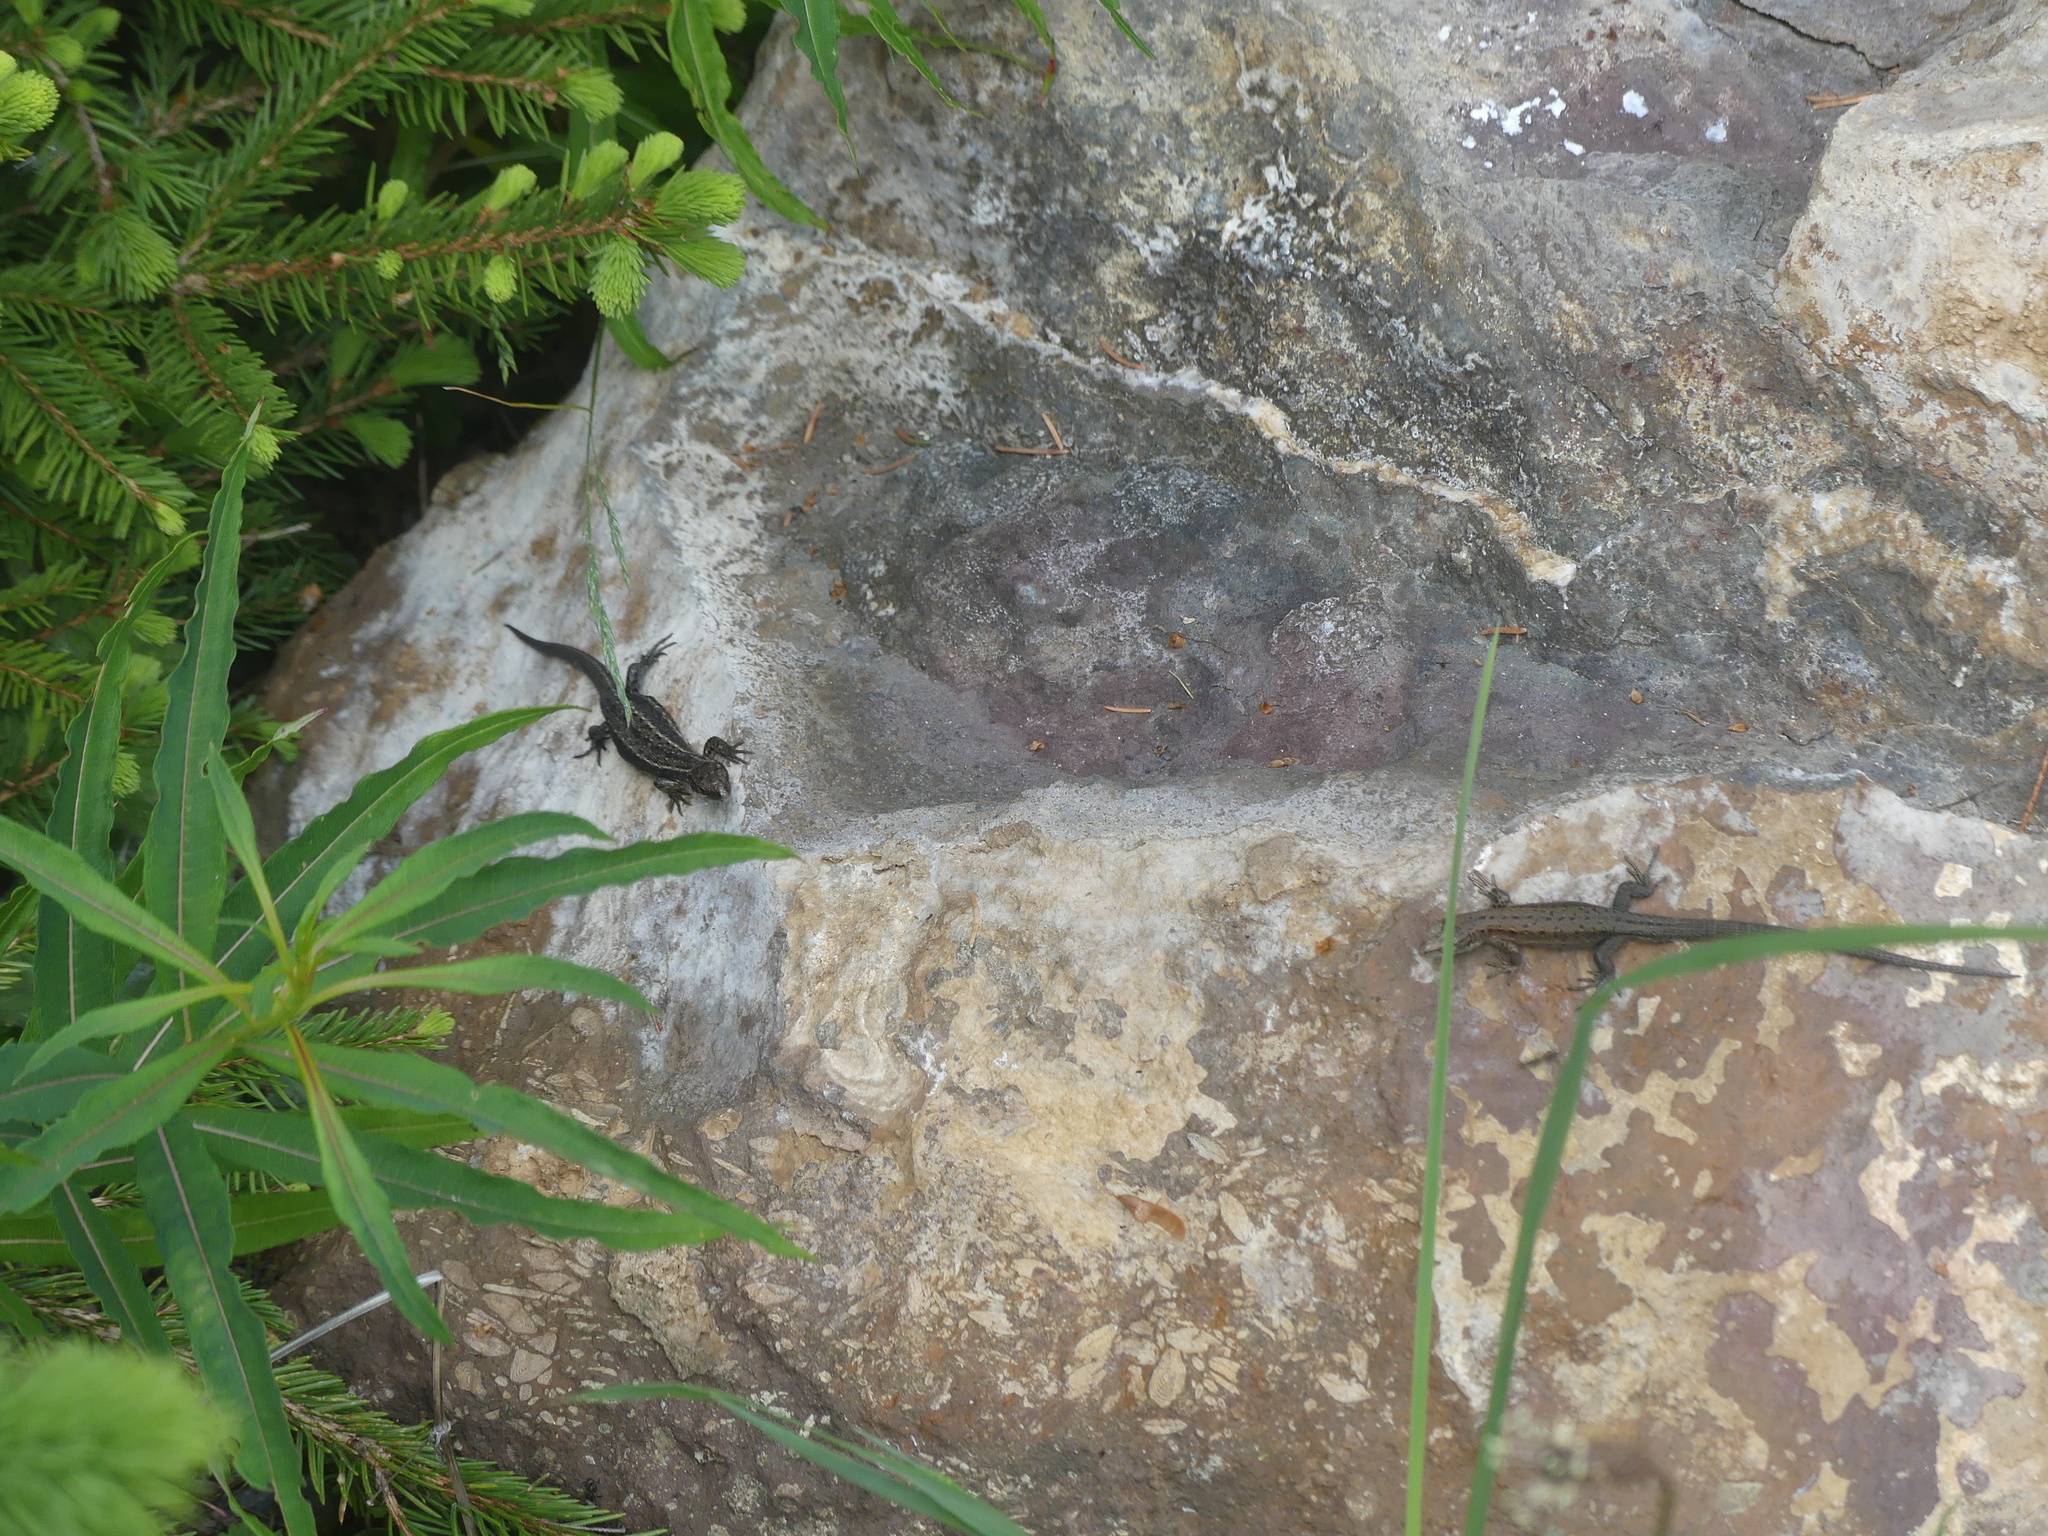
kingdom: Animalia
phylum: Chordata
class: Squamata
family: Lacertidae
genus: Zootoca
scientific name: Zootoca vivipara
